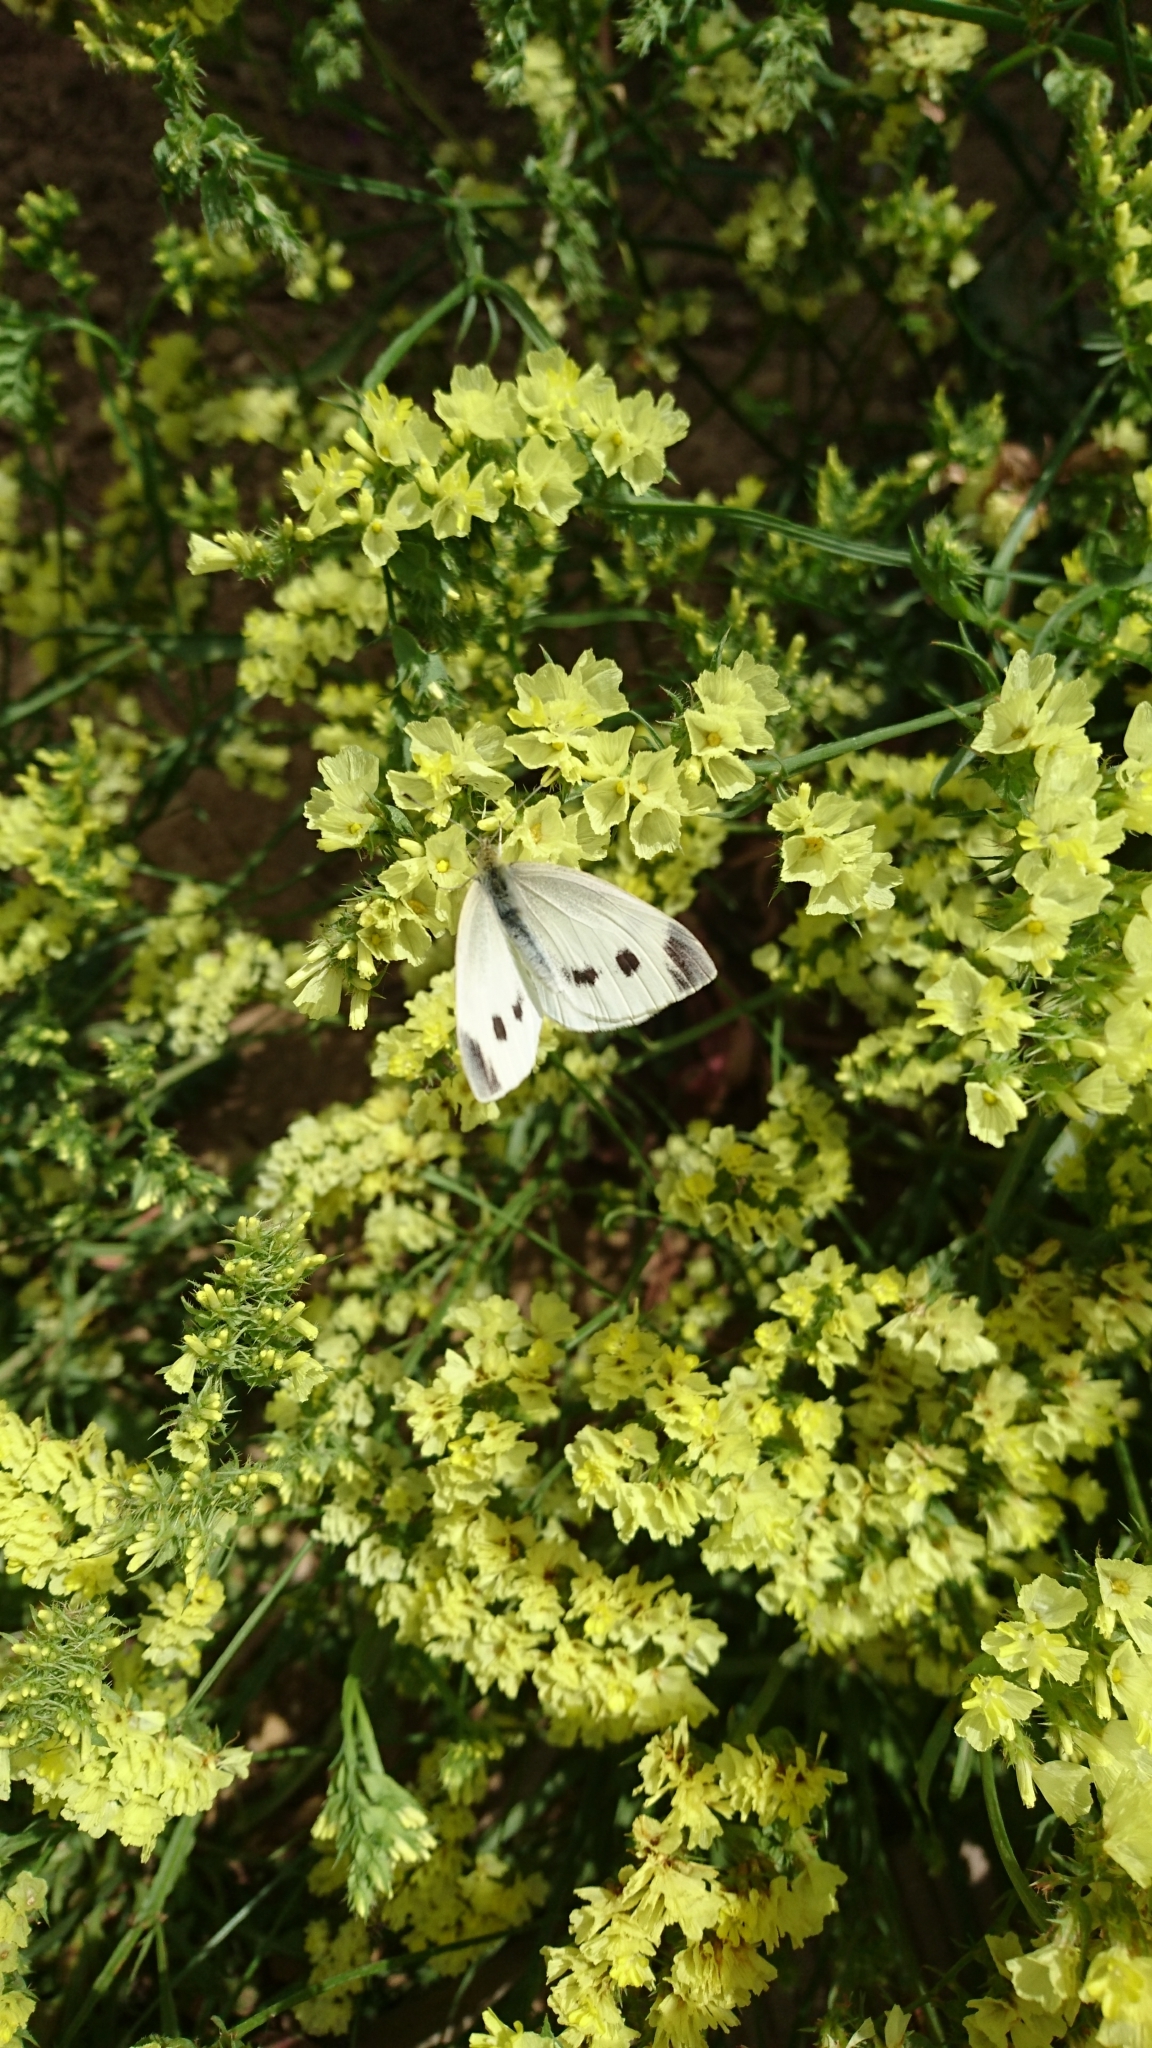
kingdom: Animalia
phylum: Arthropoda
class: Insecta
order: Lepidoptera
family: Pieridae
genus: Pieris
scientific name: Pieris rapae
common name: Small white
